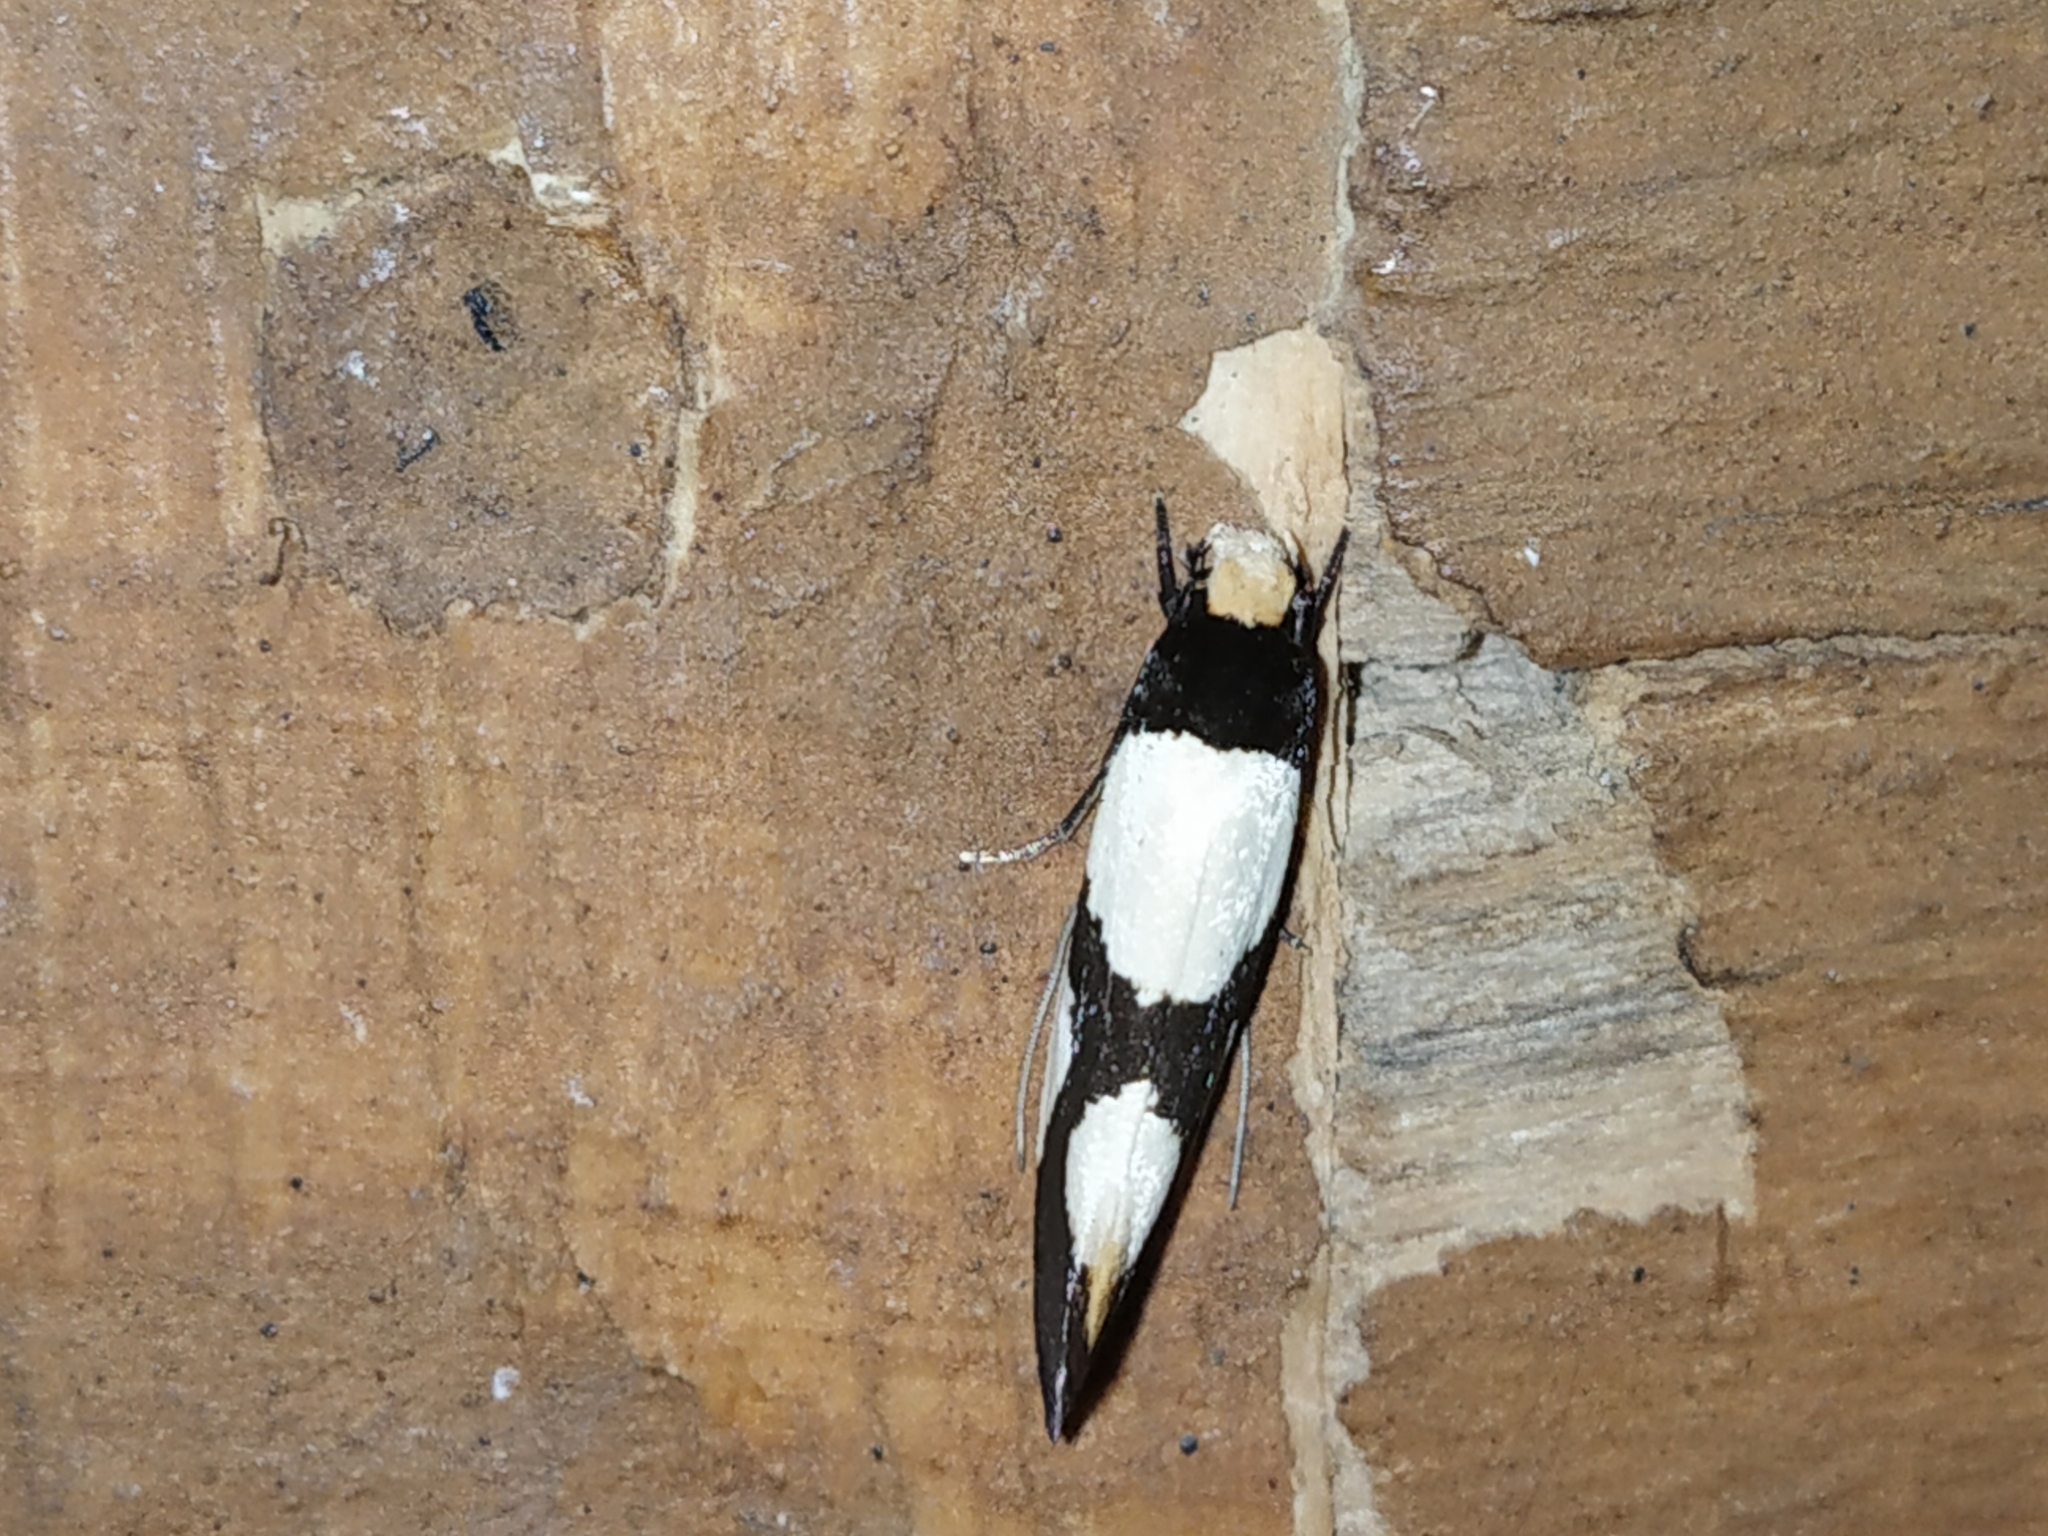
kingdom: Animalia
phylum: Arthropoda
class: Insecta
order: Lepidoptera
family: Tineidae
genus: Monopis
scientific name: Monopis trimaculella
